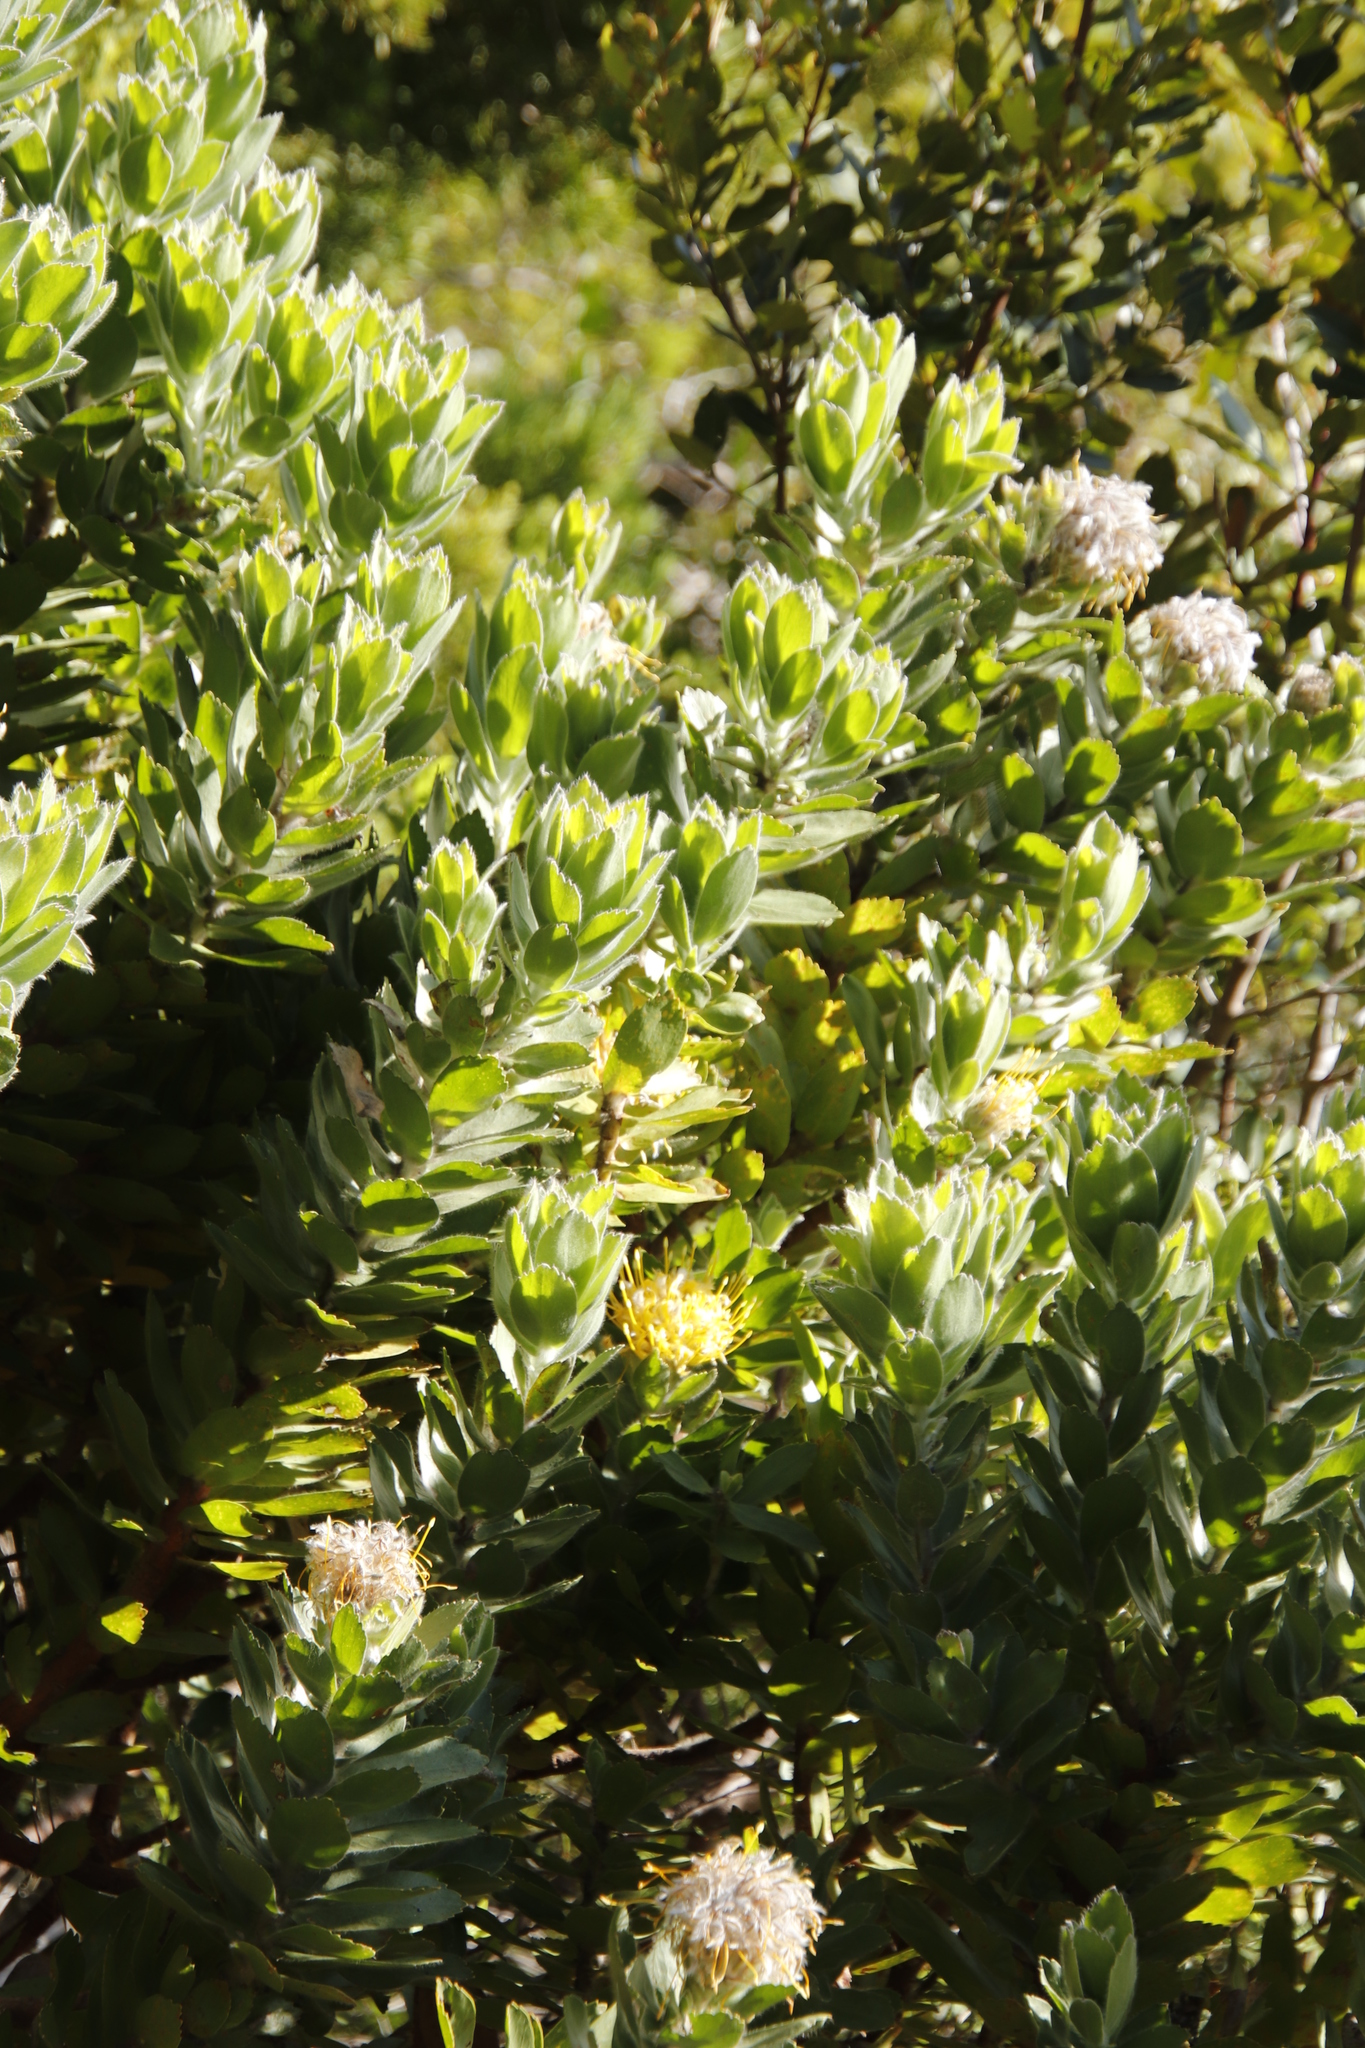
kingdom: Plantae
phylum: Tracheophyta
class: Magnoliopsida
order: Proteales
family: Proteaceae
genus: Leucospermum
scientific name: Leucospermum conocarpodendron
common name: Tree pincushion
